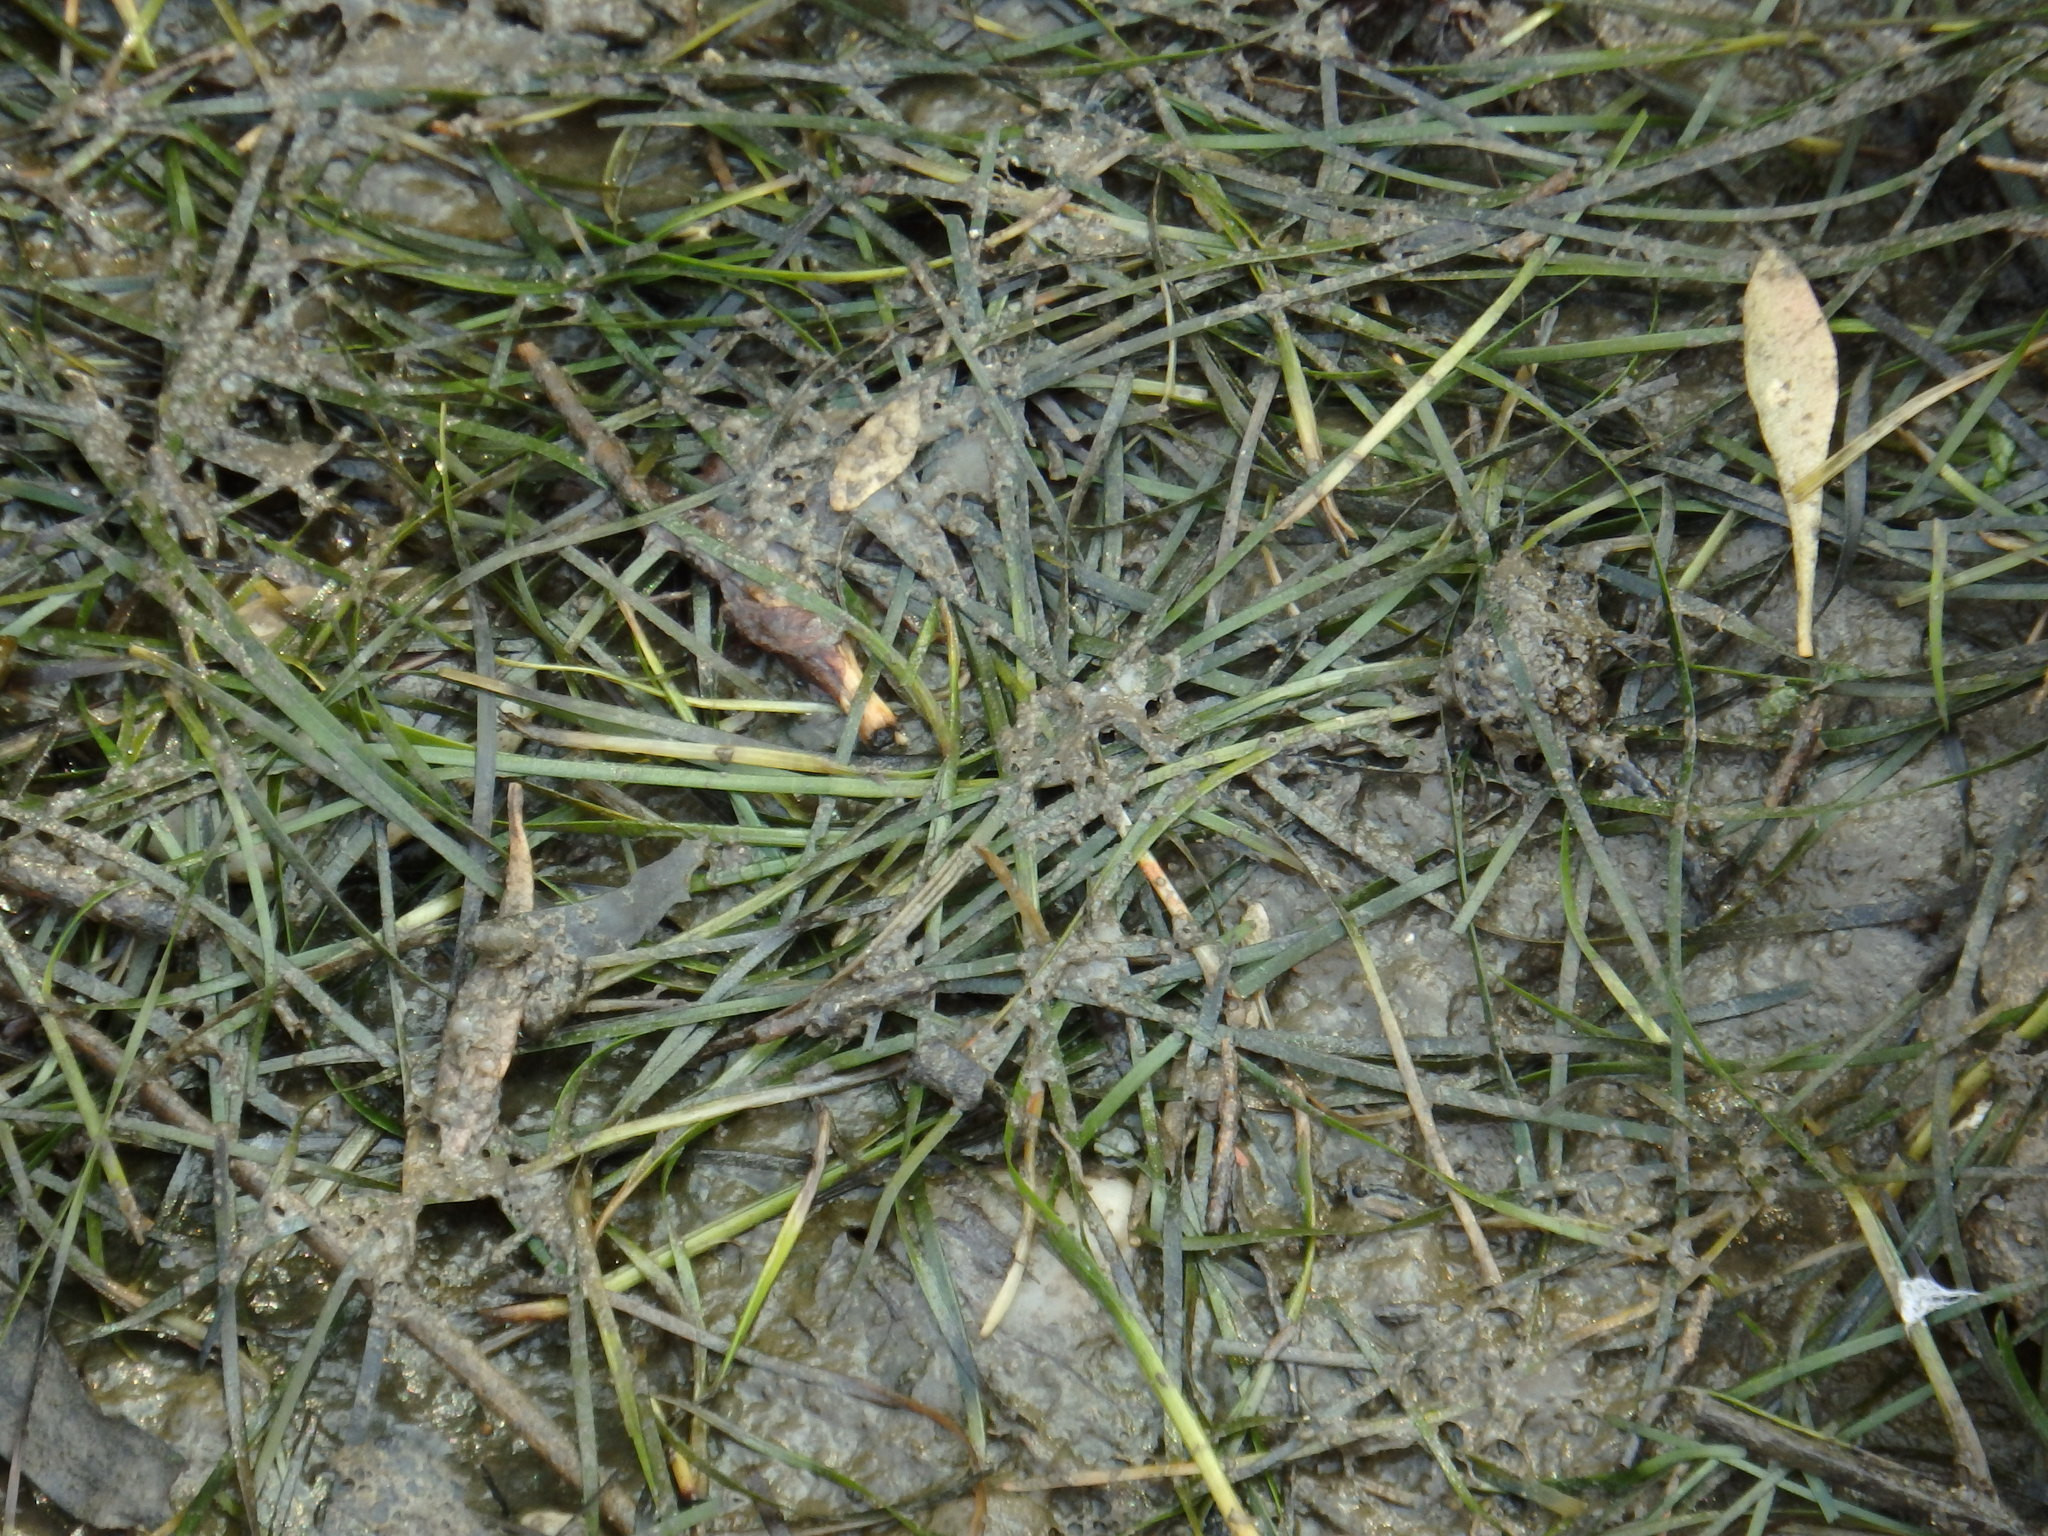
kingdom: Plantae
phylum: Tracheophyta
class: Liliopsida
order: Alismatales
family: Zosteraceae
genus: Zostera
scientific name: Zostera noltii
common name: Dwarf eelgrass
